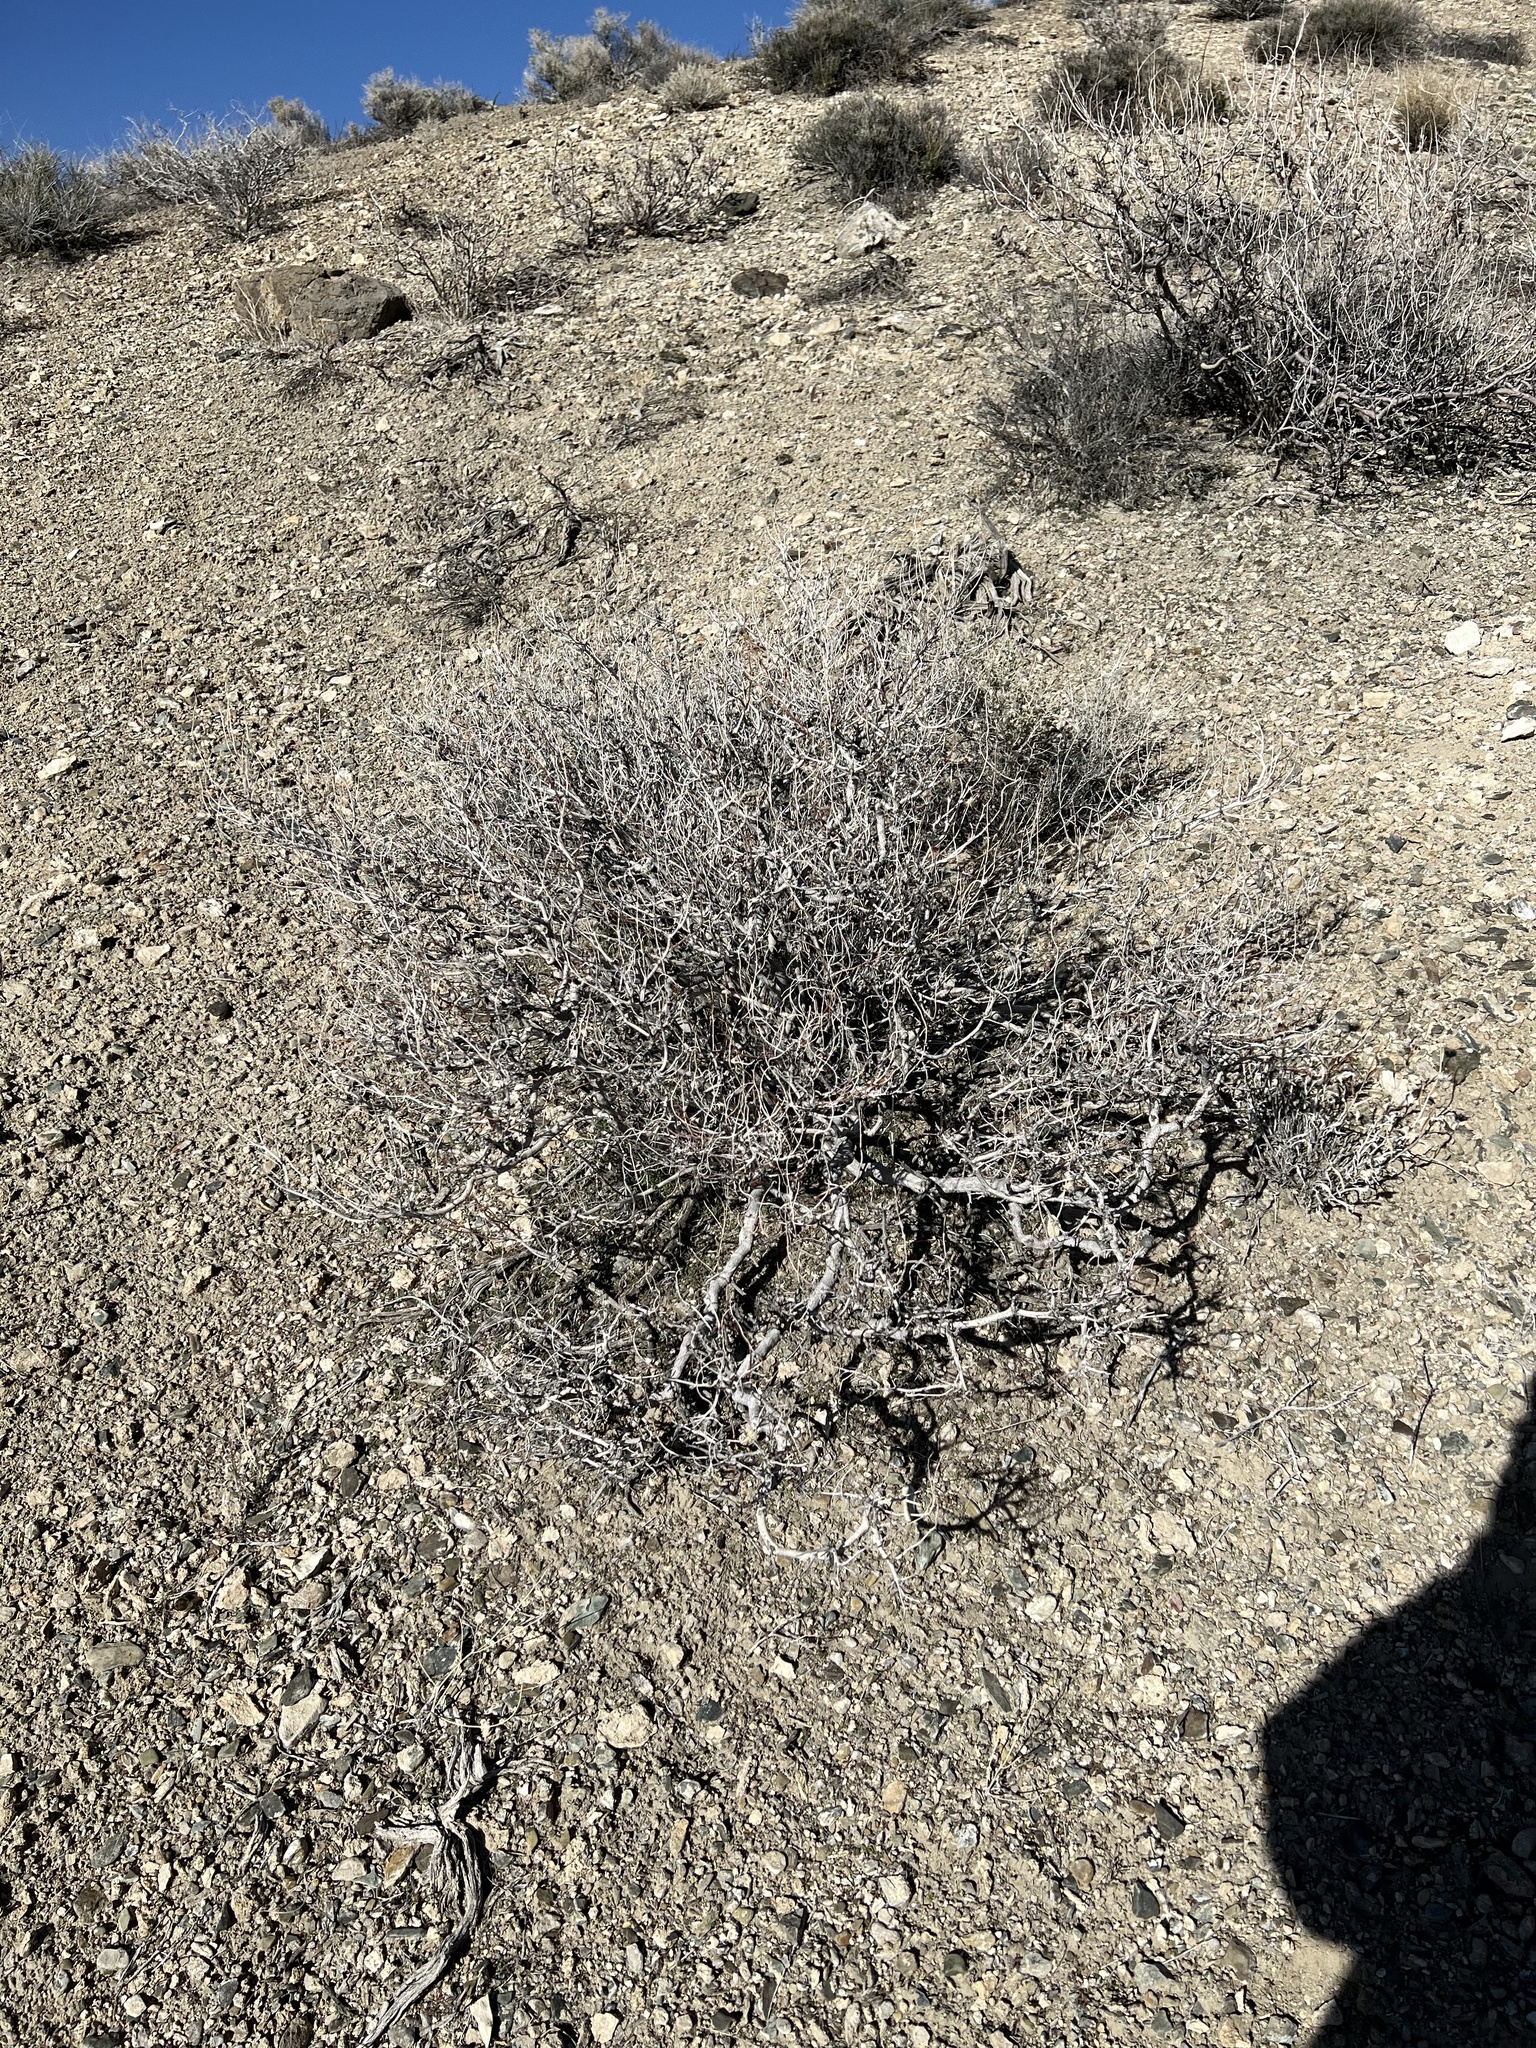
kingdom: Plantae
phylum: Tracheophyta
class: Magnoliopsida
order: Fabales
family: Fabaceae
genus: Psorothamnus
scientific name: Psorothamnus arborescens
